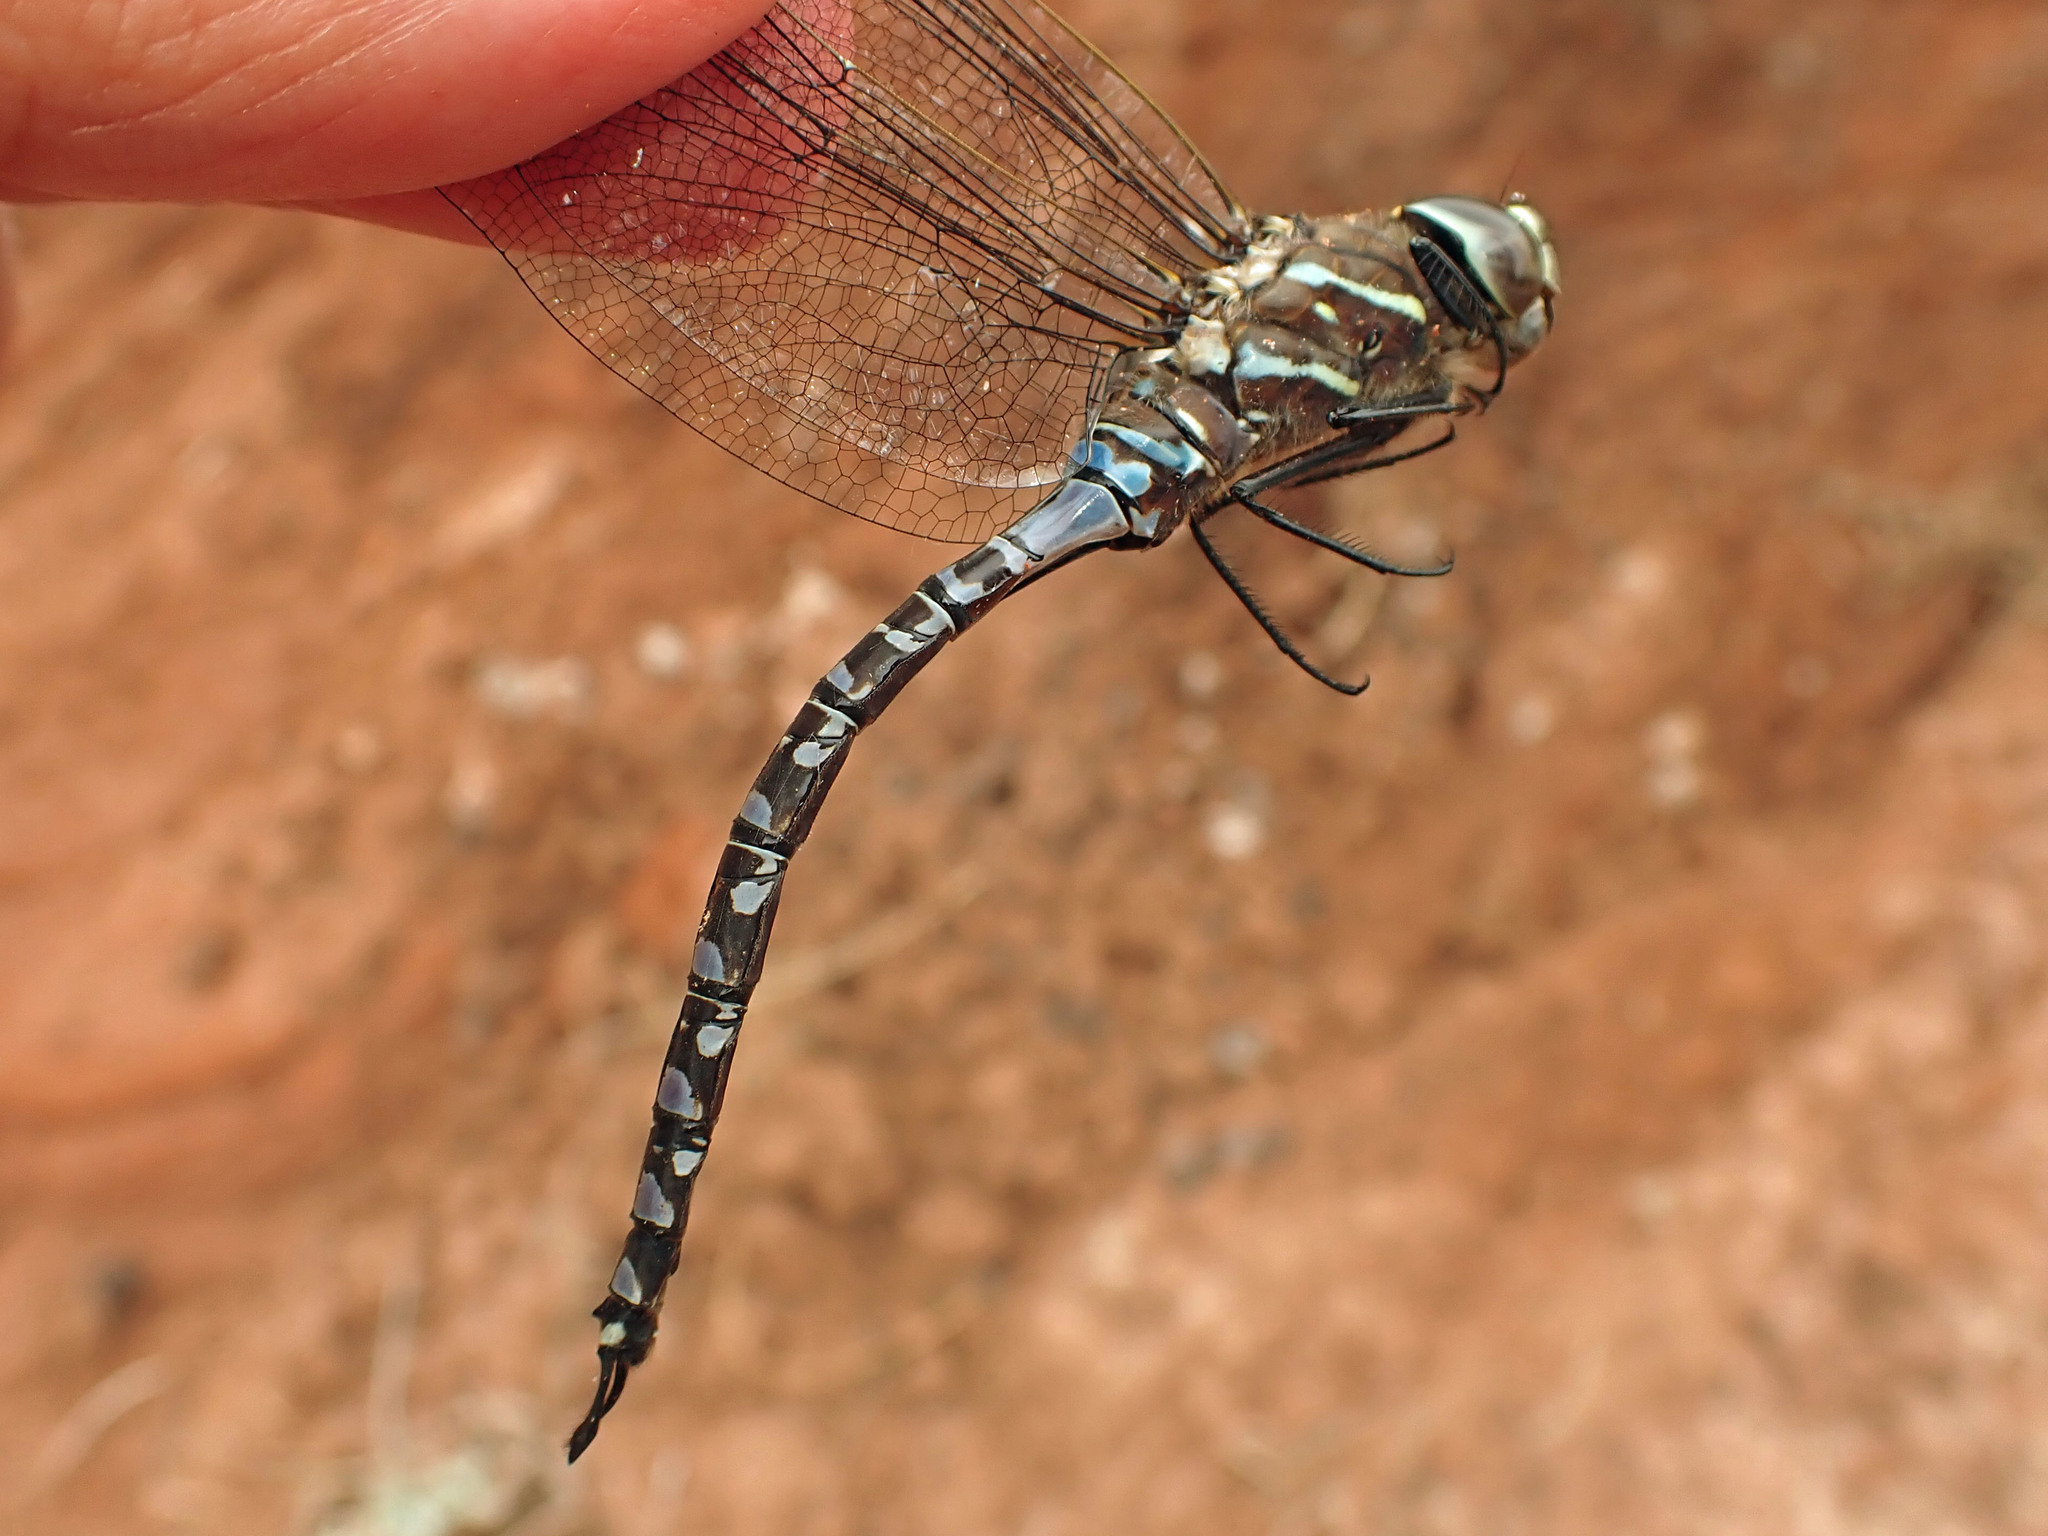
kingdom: Animalia
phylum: Arthropoda
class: Insecta
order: Odonata
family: Aeshnidae
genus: Aeshna
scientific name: Aeshna interrupta
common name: Variable darner
